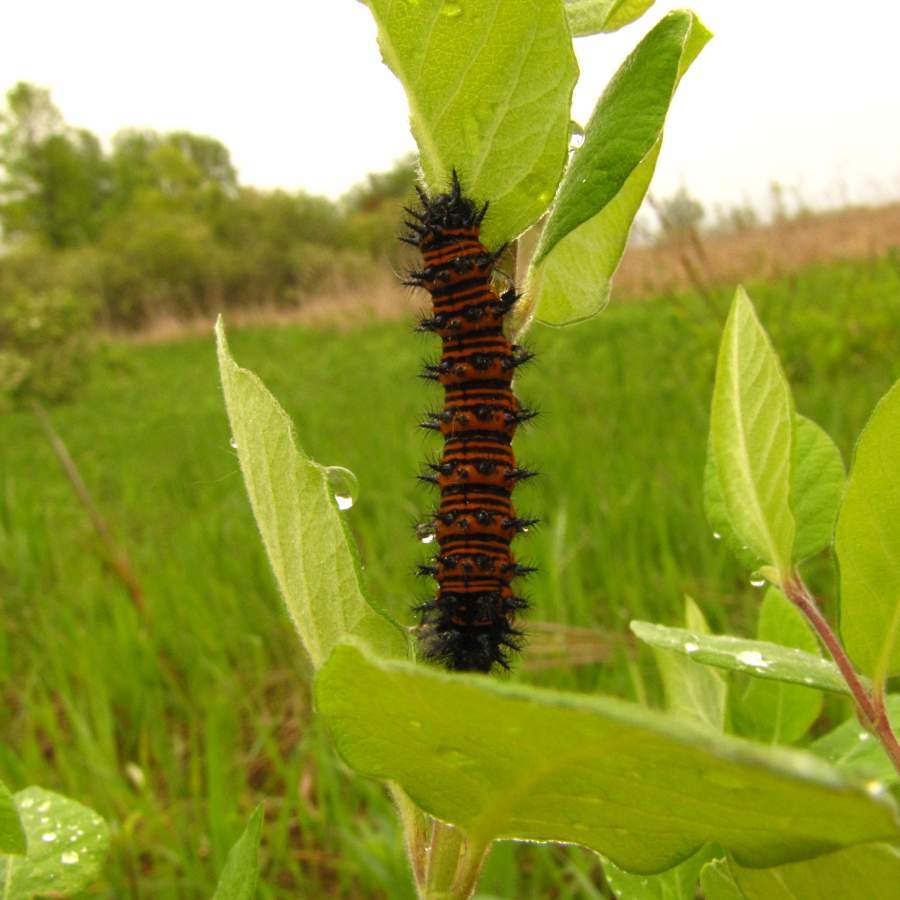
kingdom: Animalia
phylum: Arthropoda
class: Insecta
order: Lepidoptera
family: Nymphalidae
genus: Euphydryas
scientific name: Euphydryas phaeton
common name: Baltimore checkerspot
